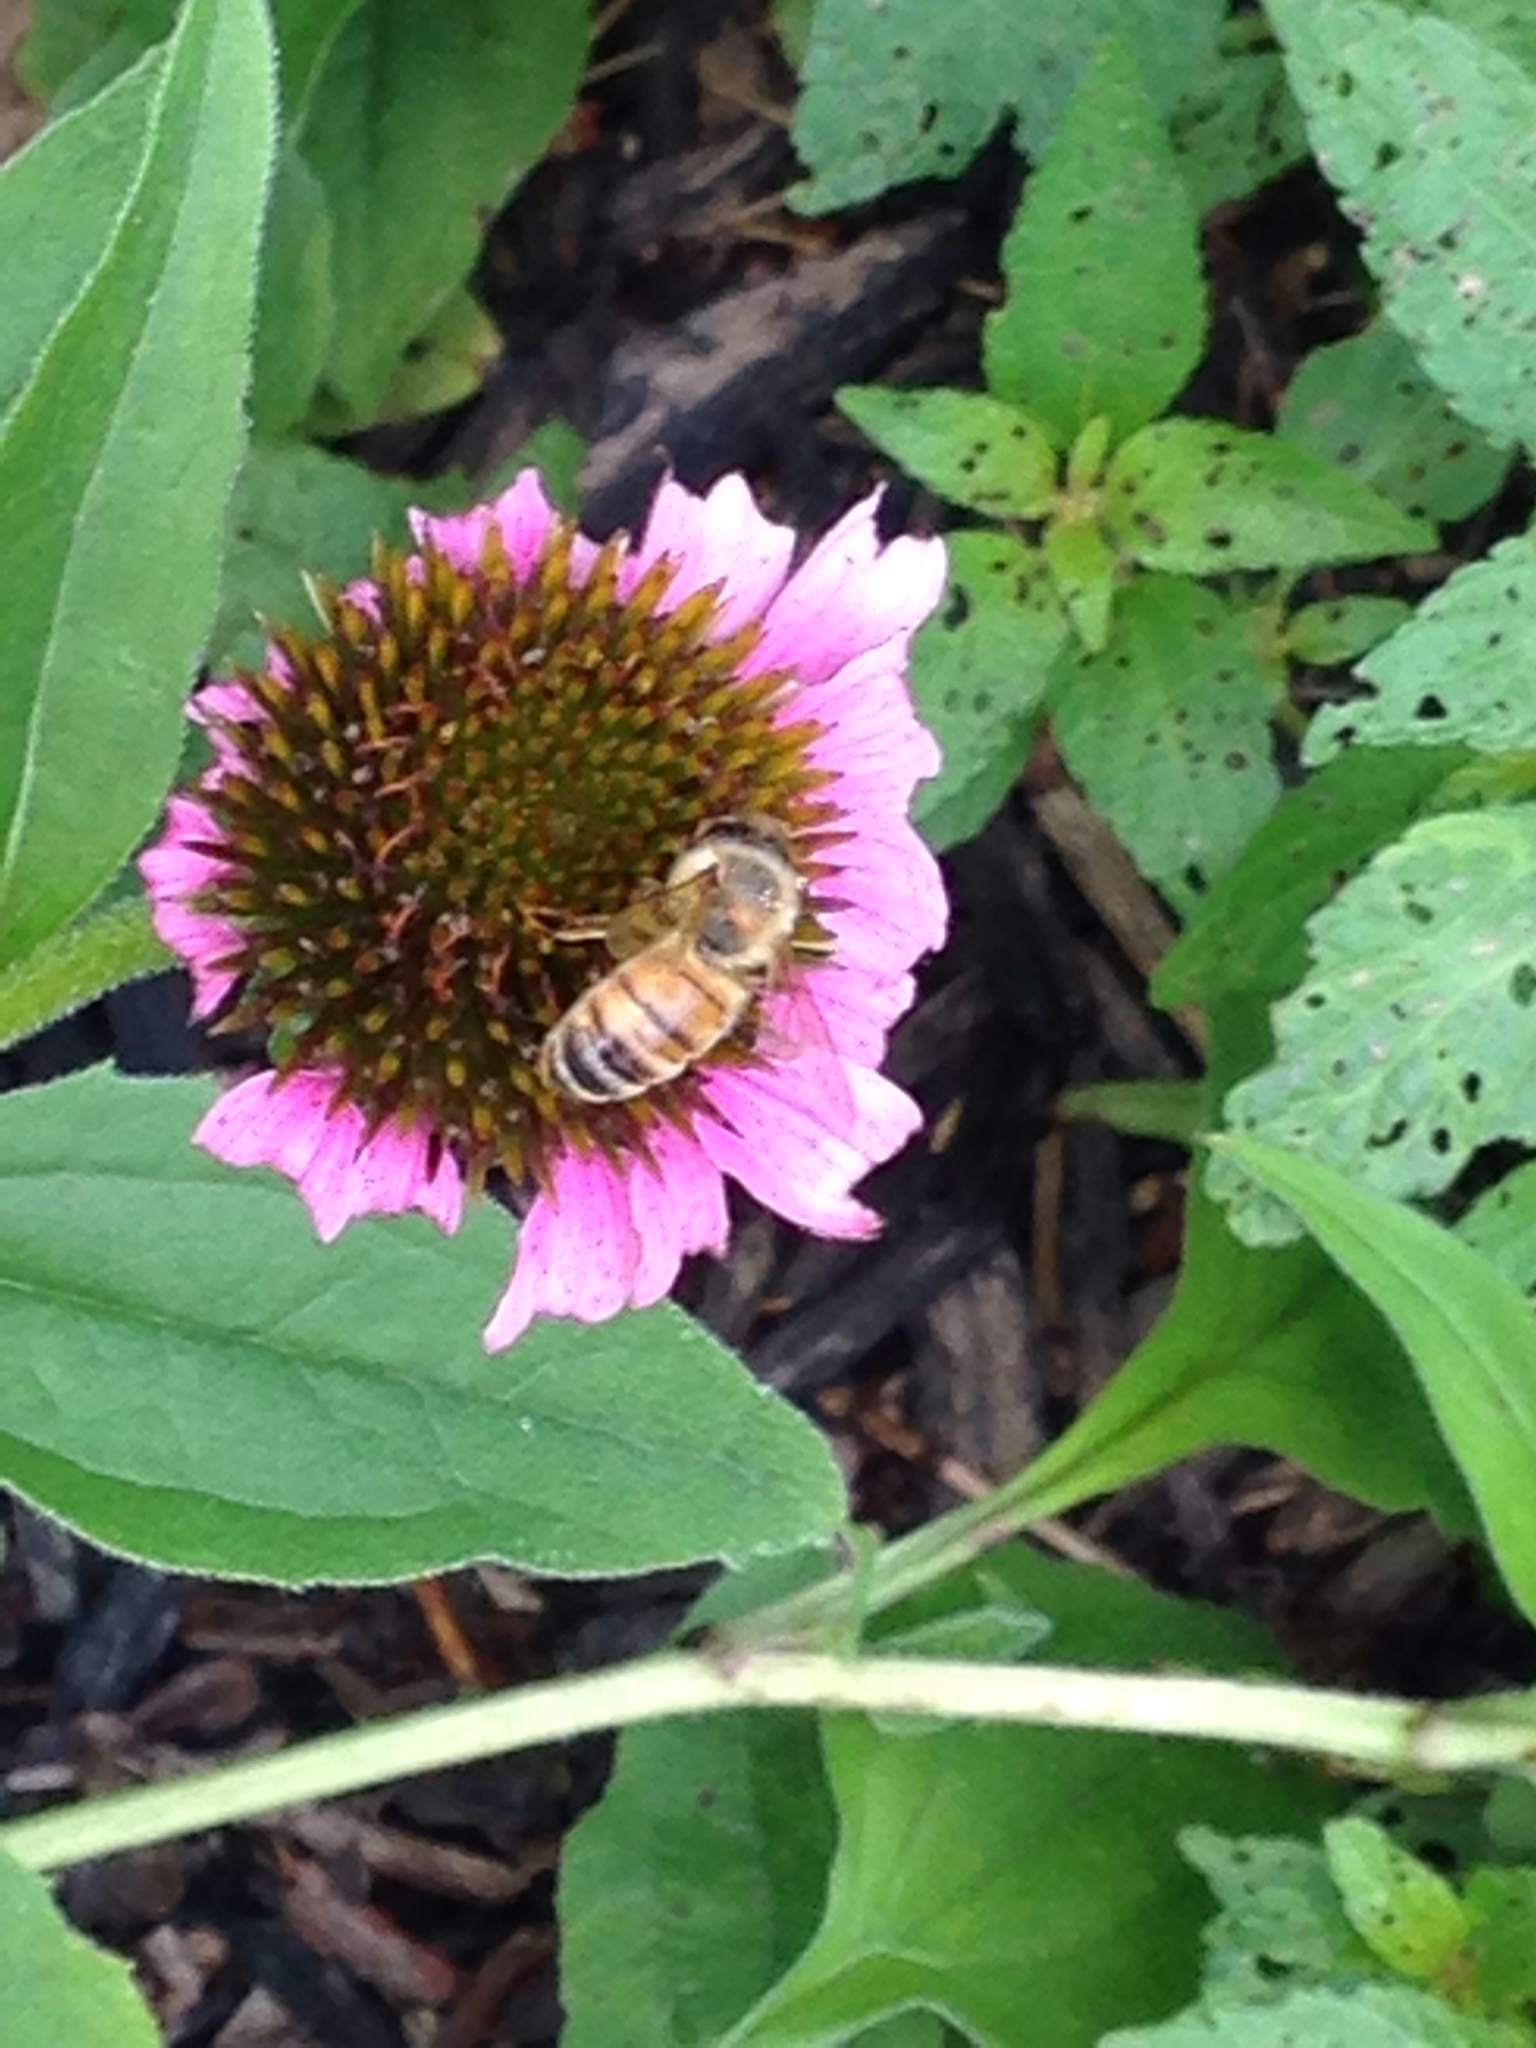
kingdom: Animalia
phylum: Arthropoda
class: Insecta
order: Hymenoptera
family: Apidae
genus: Apis
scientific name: Apis mellifera
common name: Honey bee
